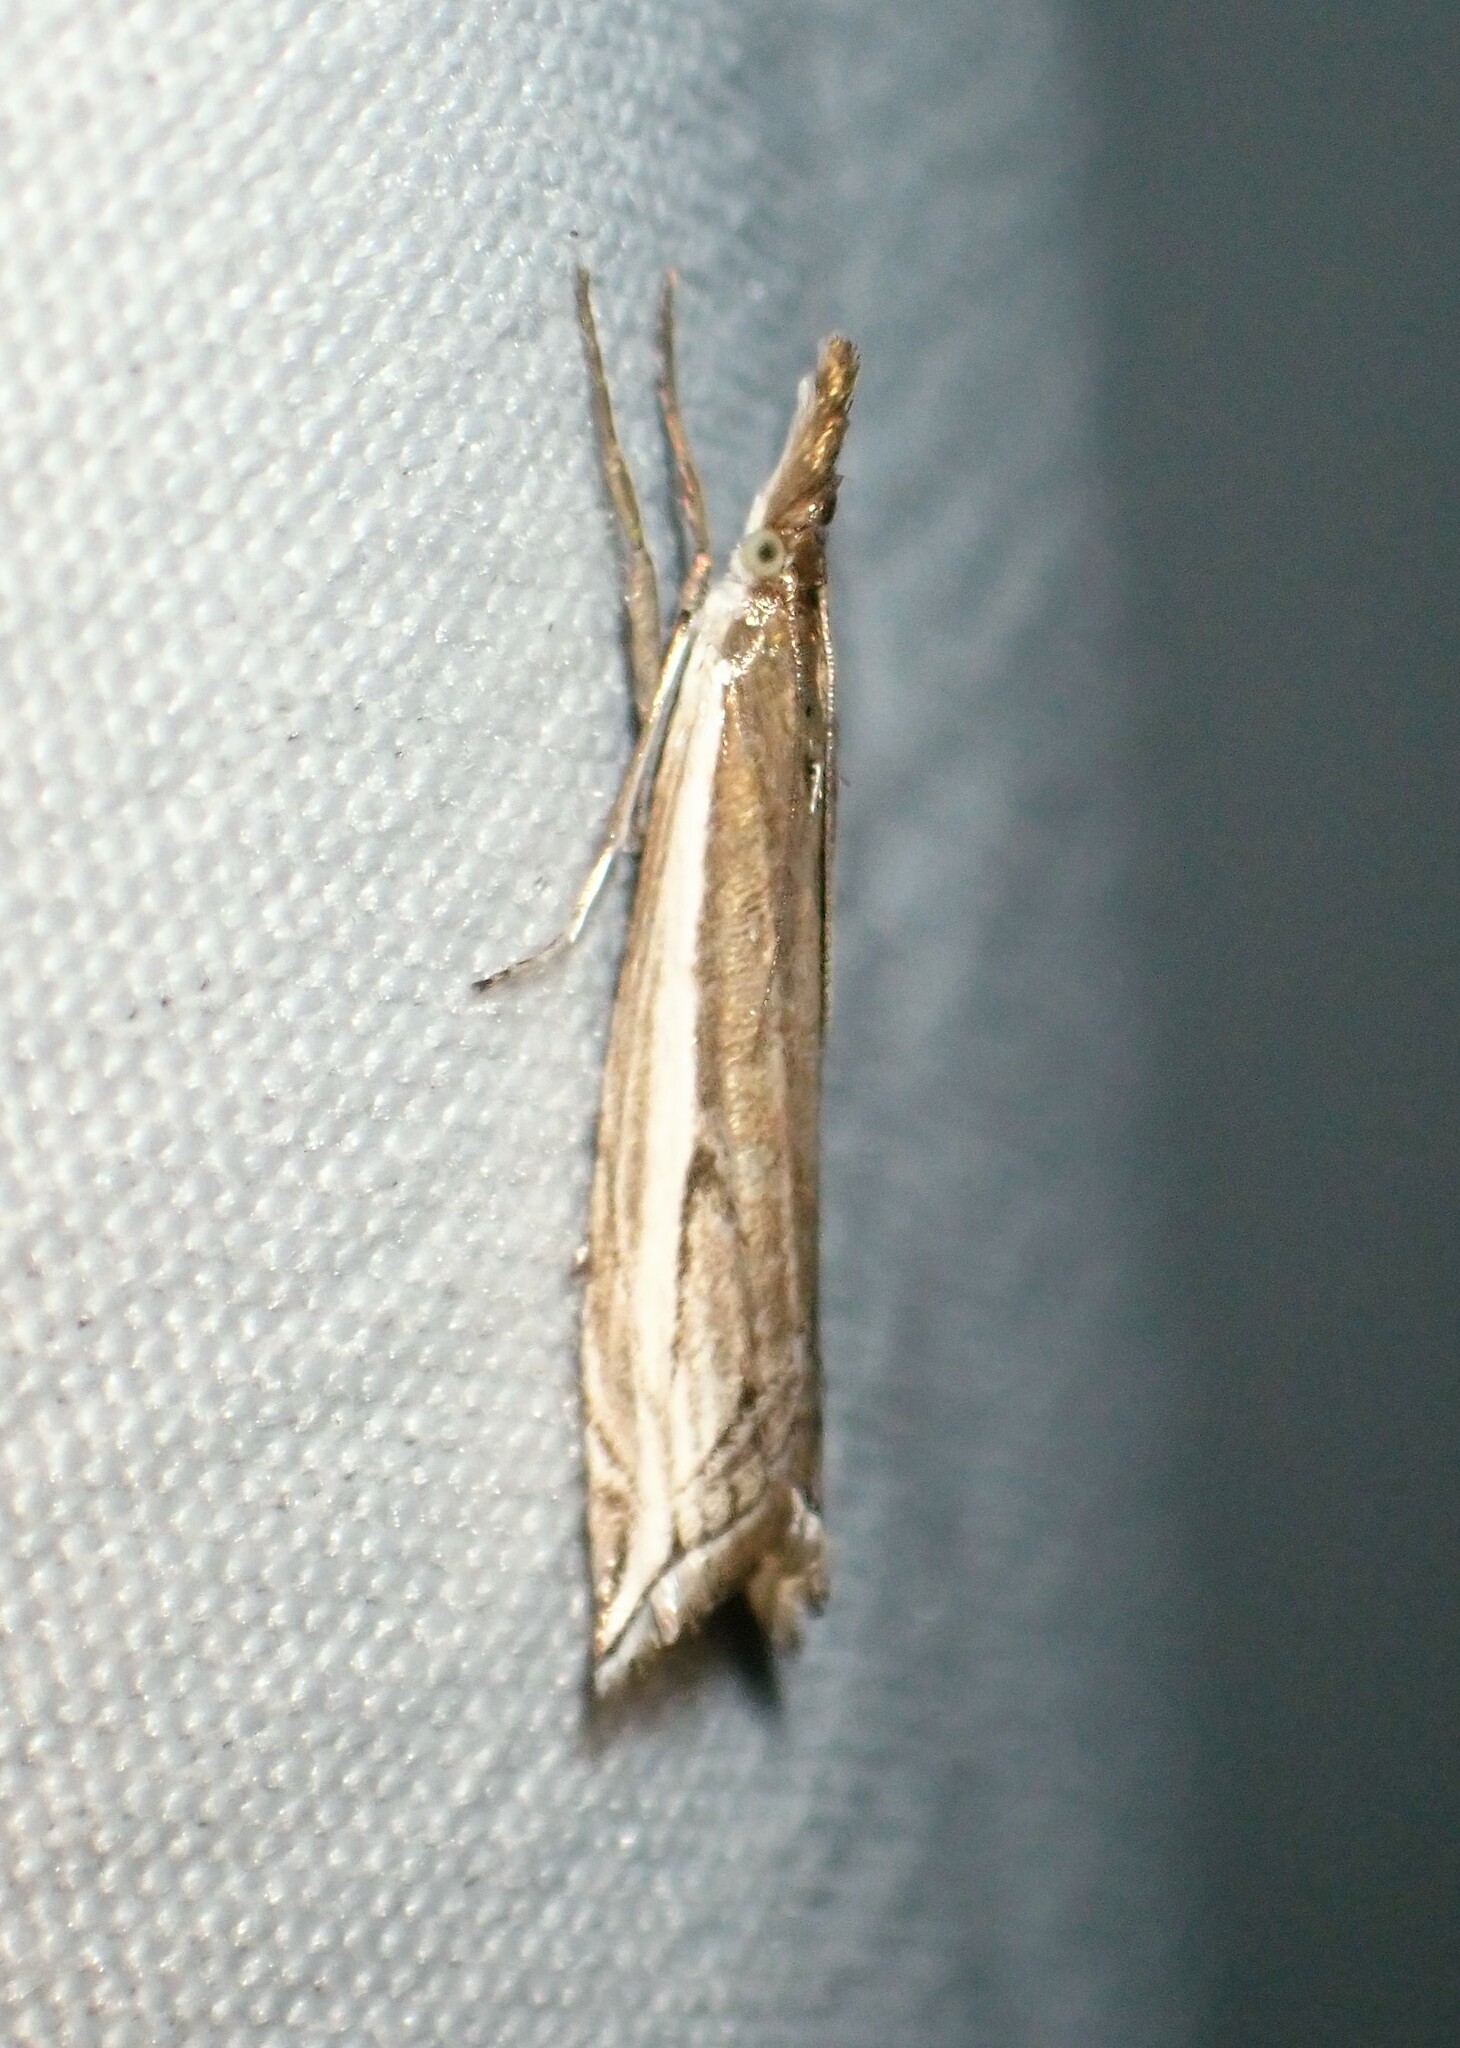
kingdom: Animalia
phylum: Arthropoda
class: Insecta
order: Lepidoptera
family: Crambidae
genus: Raphiptera
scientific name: Raphiptera argillaceellus
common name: Diminutive grass-veneer
